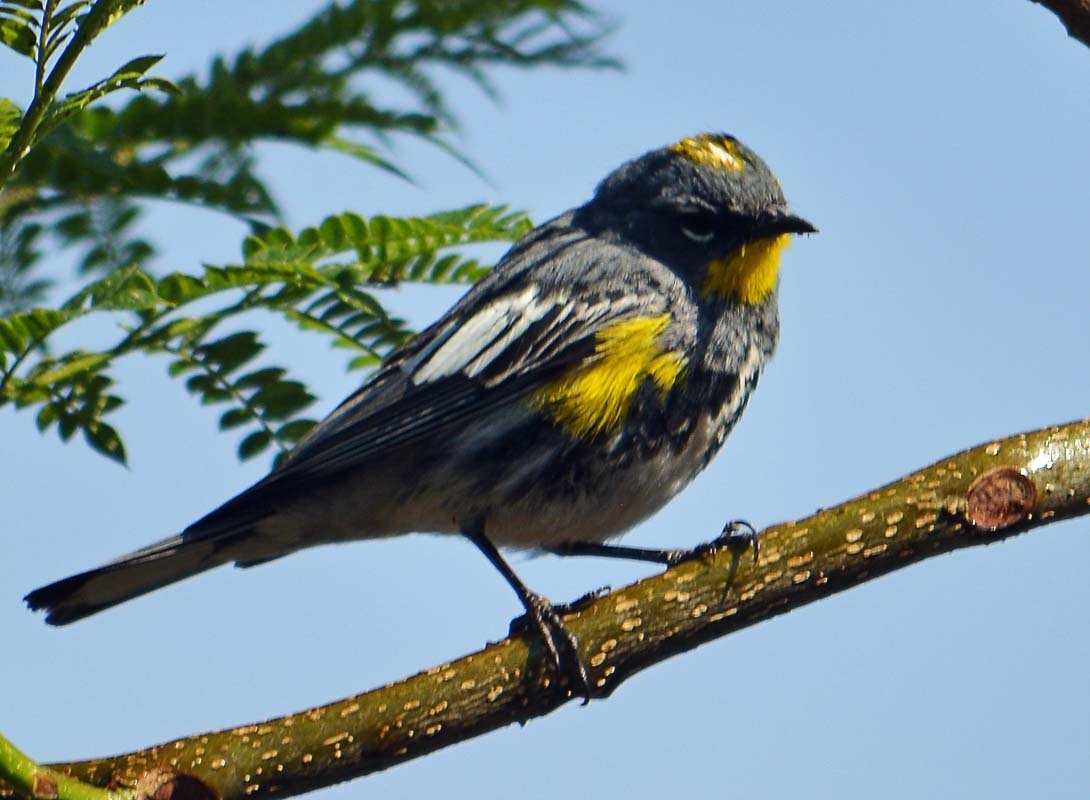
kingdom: Animalia
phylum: Chordata
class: Aves
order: Passeriformes
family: Parulidae
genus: Setophaga
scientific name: Setophaga auduboni
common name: Audubon's warbler
